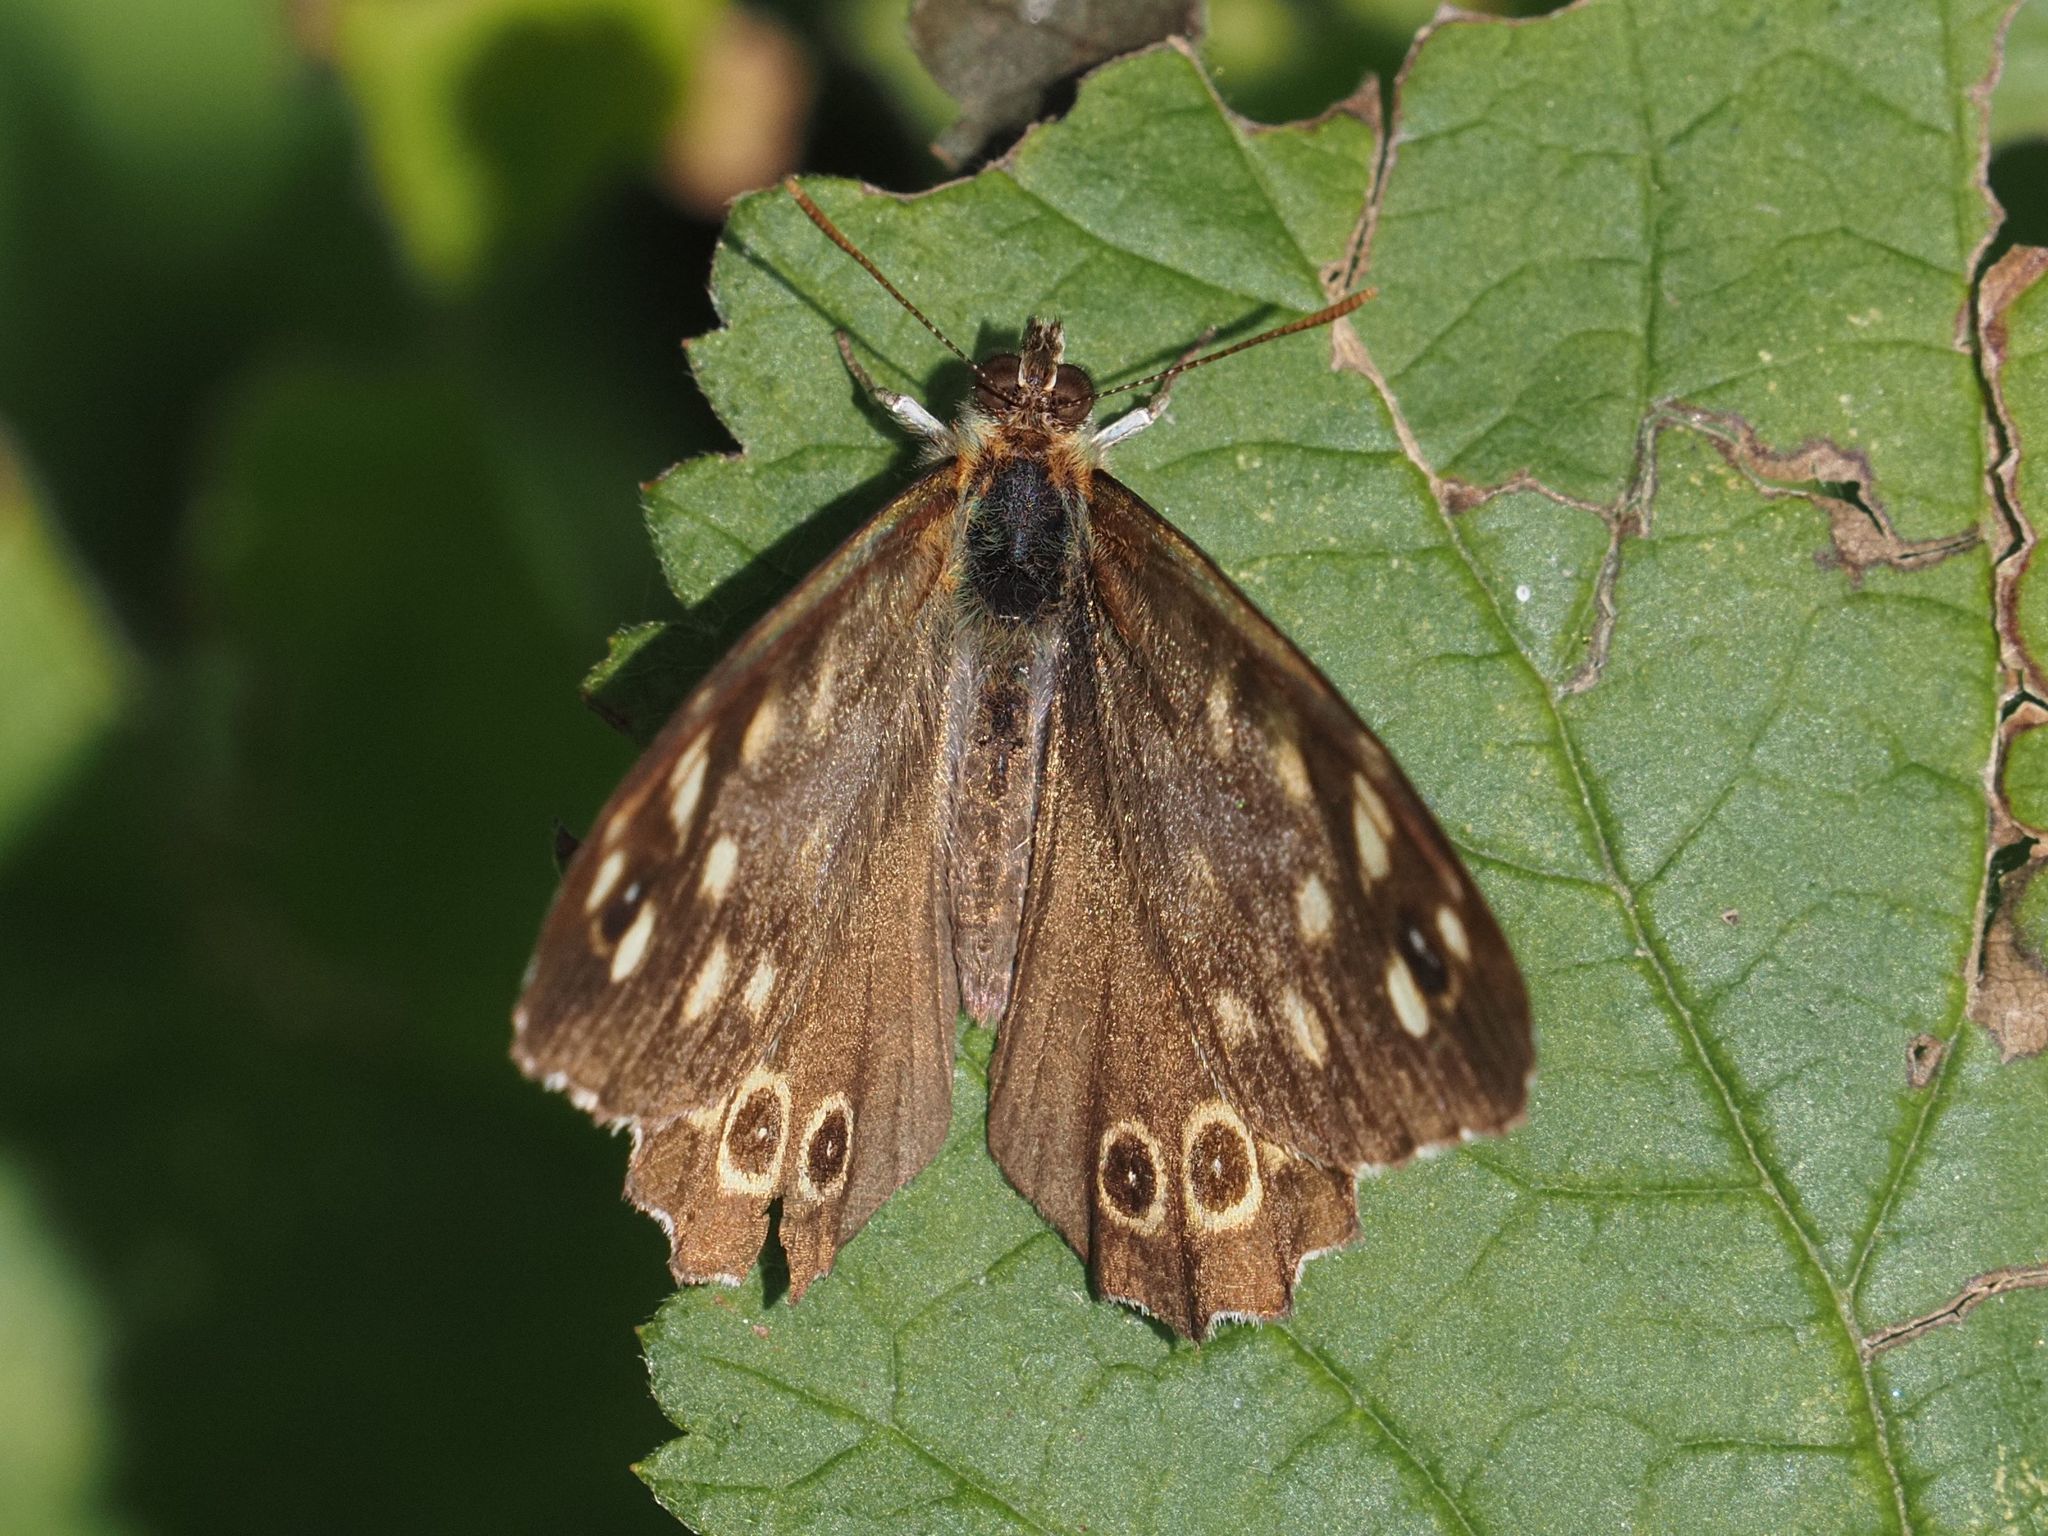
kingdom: Animalia
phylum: Arthropoda
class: Insecta
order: Lepidoptera
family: Nymphalidae
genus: Pararge
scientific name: Pararge aegeria
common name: Speckled wood
